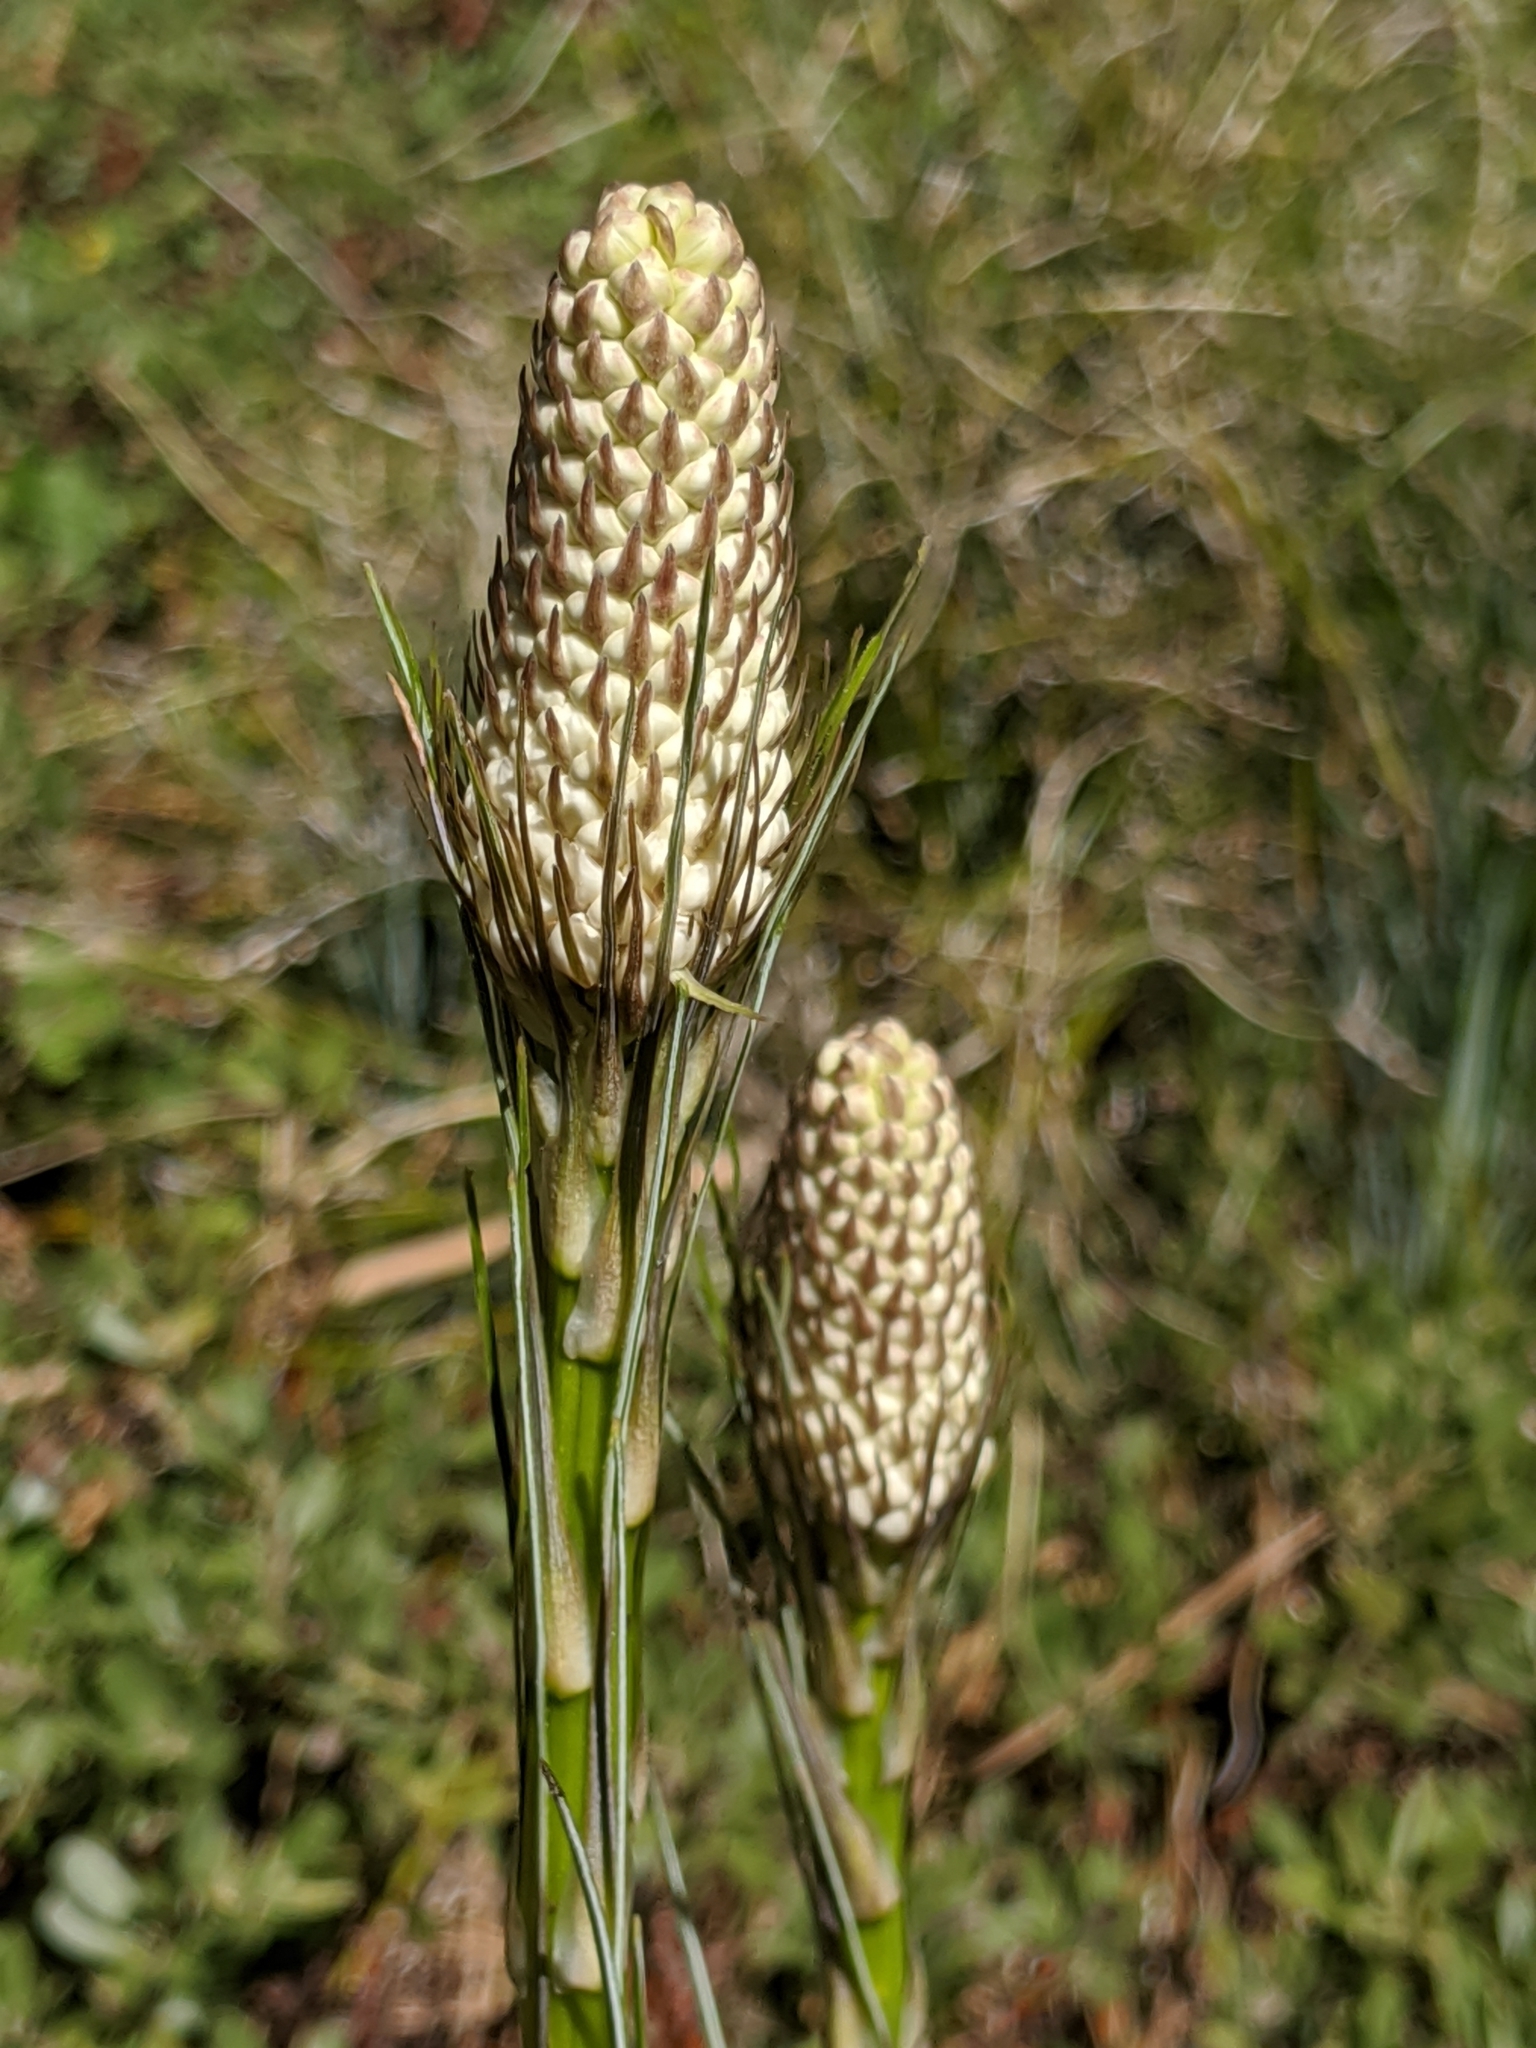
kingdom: Plantae
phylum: Tracheophyta
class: Liliopsida
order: Liliales
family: Melanthiaceae
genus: Xerophyllum
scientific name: Xerophyllum tenax
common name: Bear-grass
